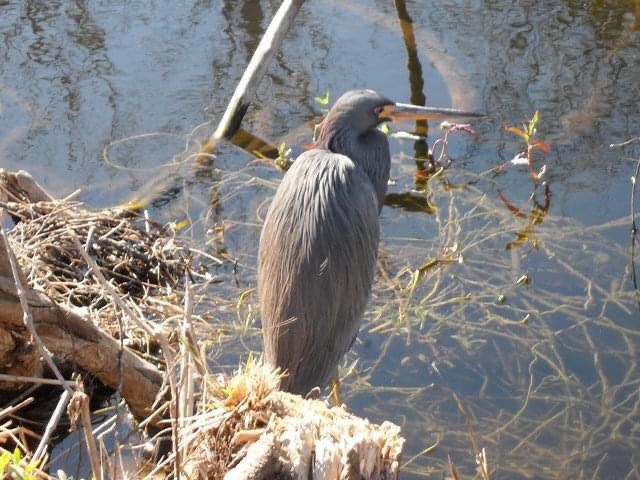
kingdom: Animalia
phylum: Chordata
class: Aves
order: Pelecaniformes
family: Ardeidae
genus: Egretta
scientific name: Egretta tricolor
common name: Tricolored heron
